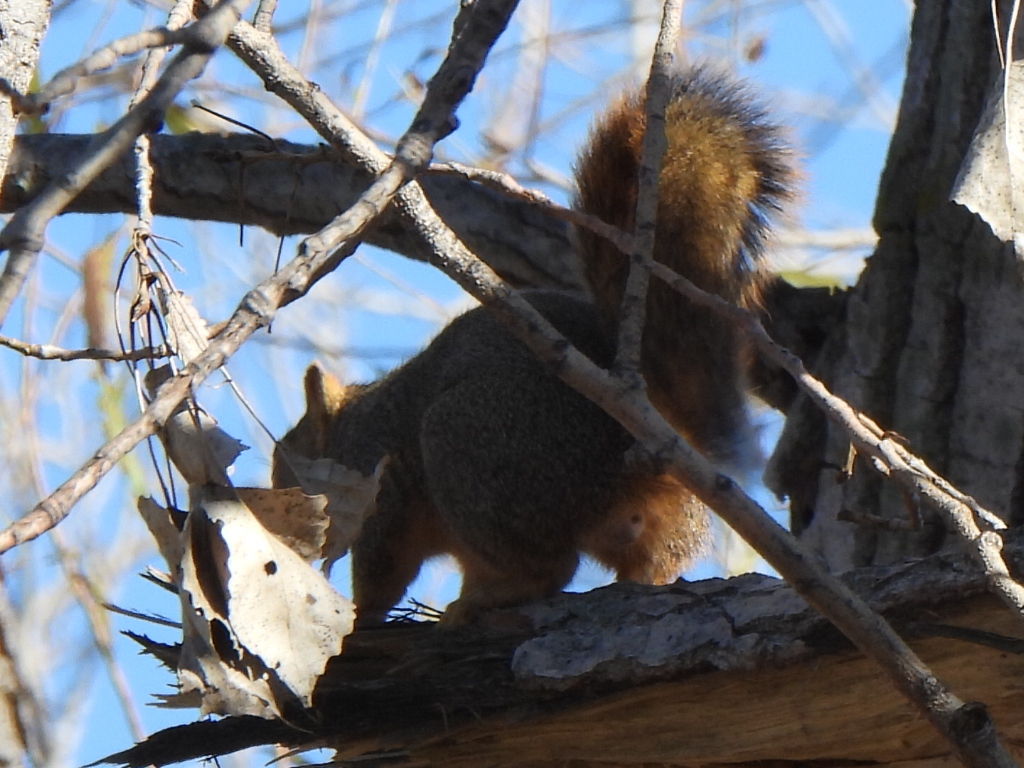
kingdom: Animalia
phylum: Chordata
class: Mammalia
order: Rodentia
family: Sciuridae
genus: Sciurus
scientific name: Sciurus niger
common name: Fox squirrel
